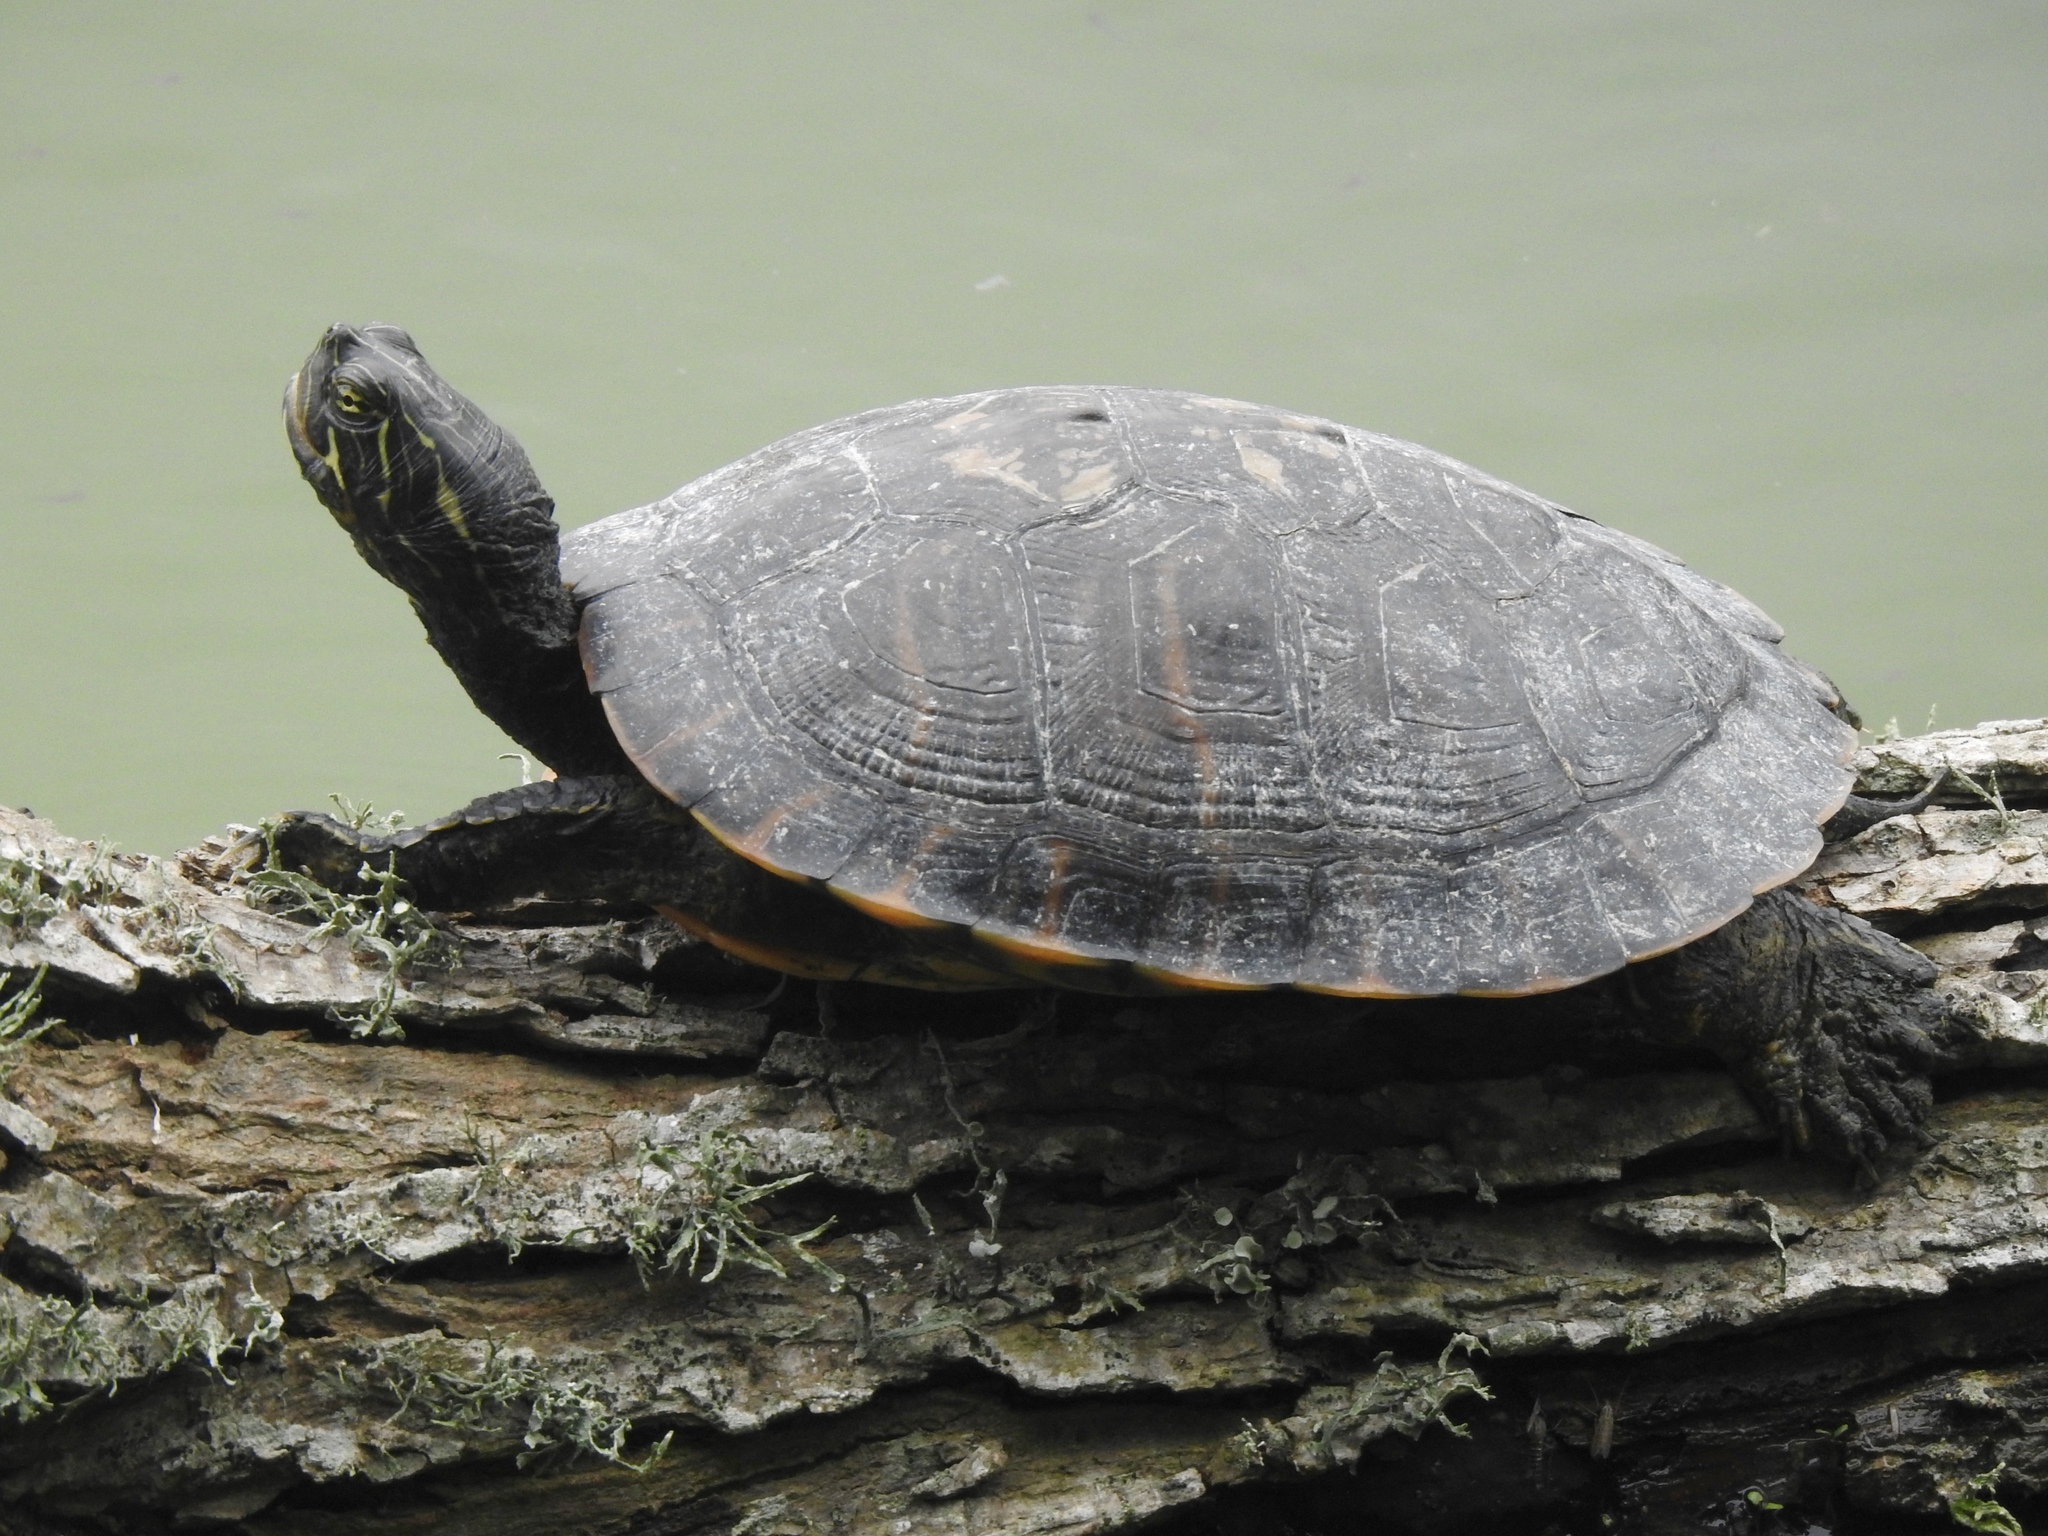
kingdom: Animalia
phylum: Chordata
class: Testudines
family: Emydidae
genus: Pseudemys
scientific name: Pseudemys concinna
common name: Eastern river cooter
